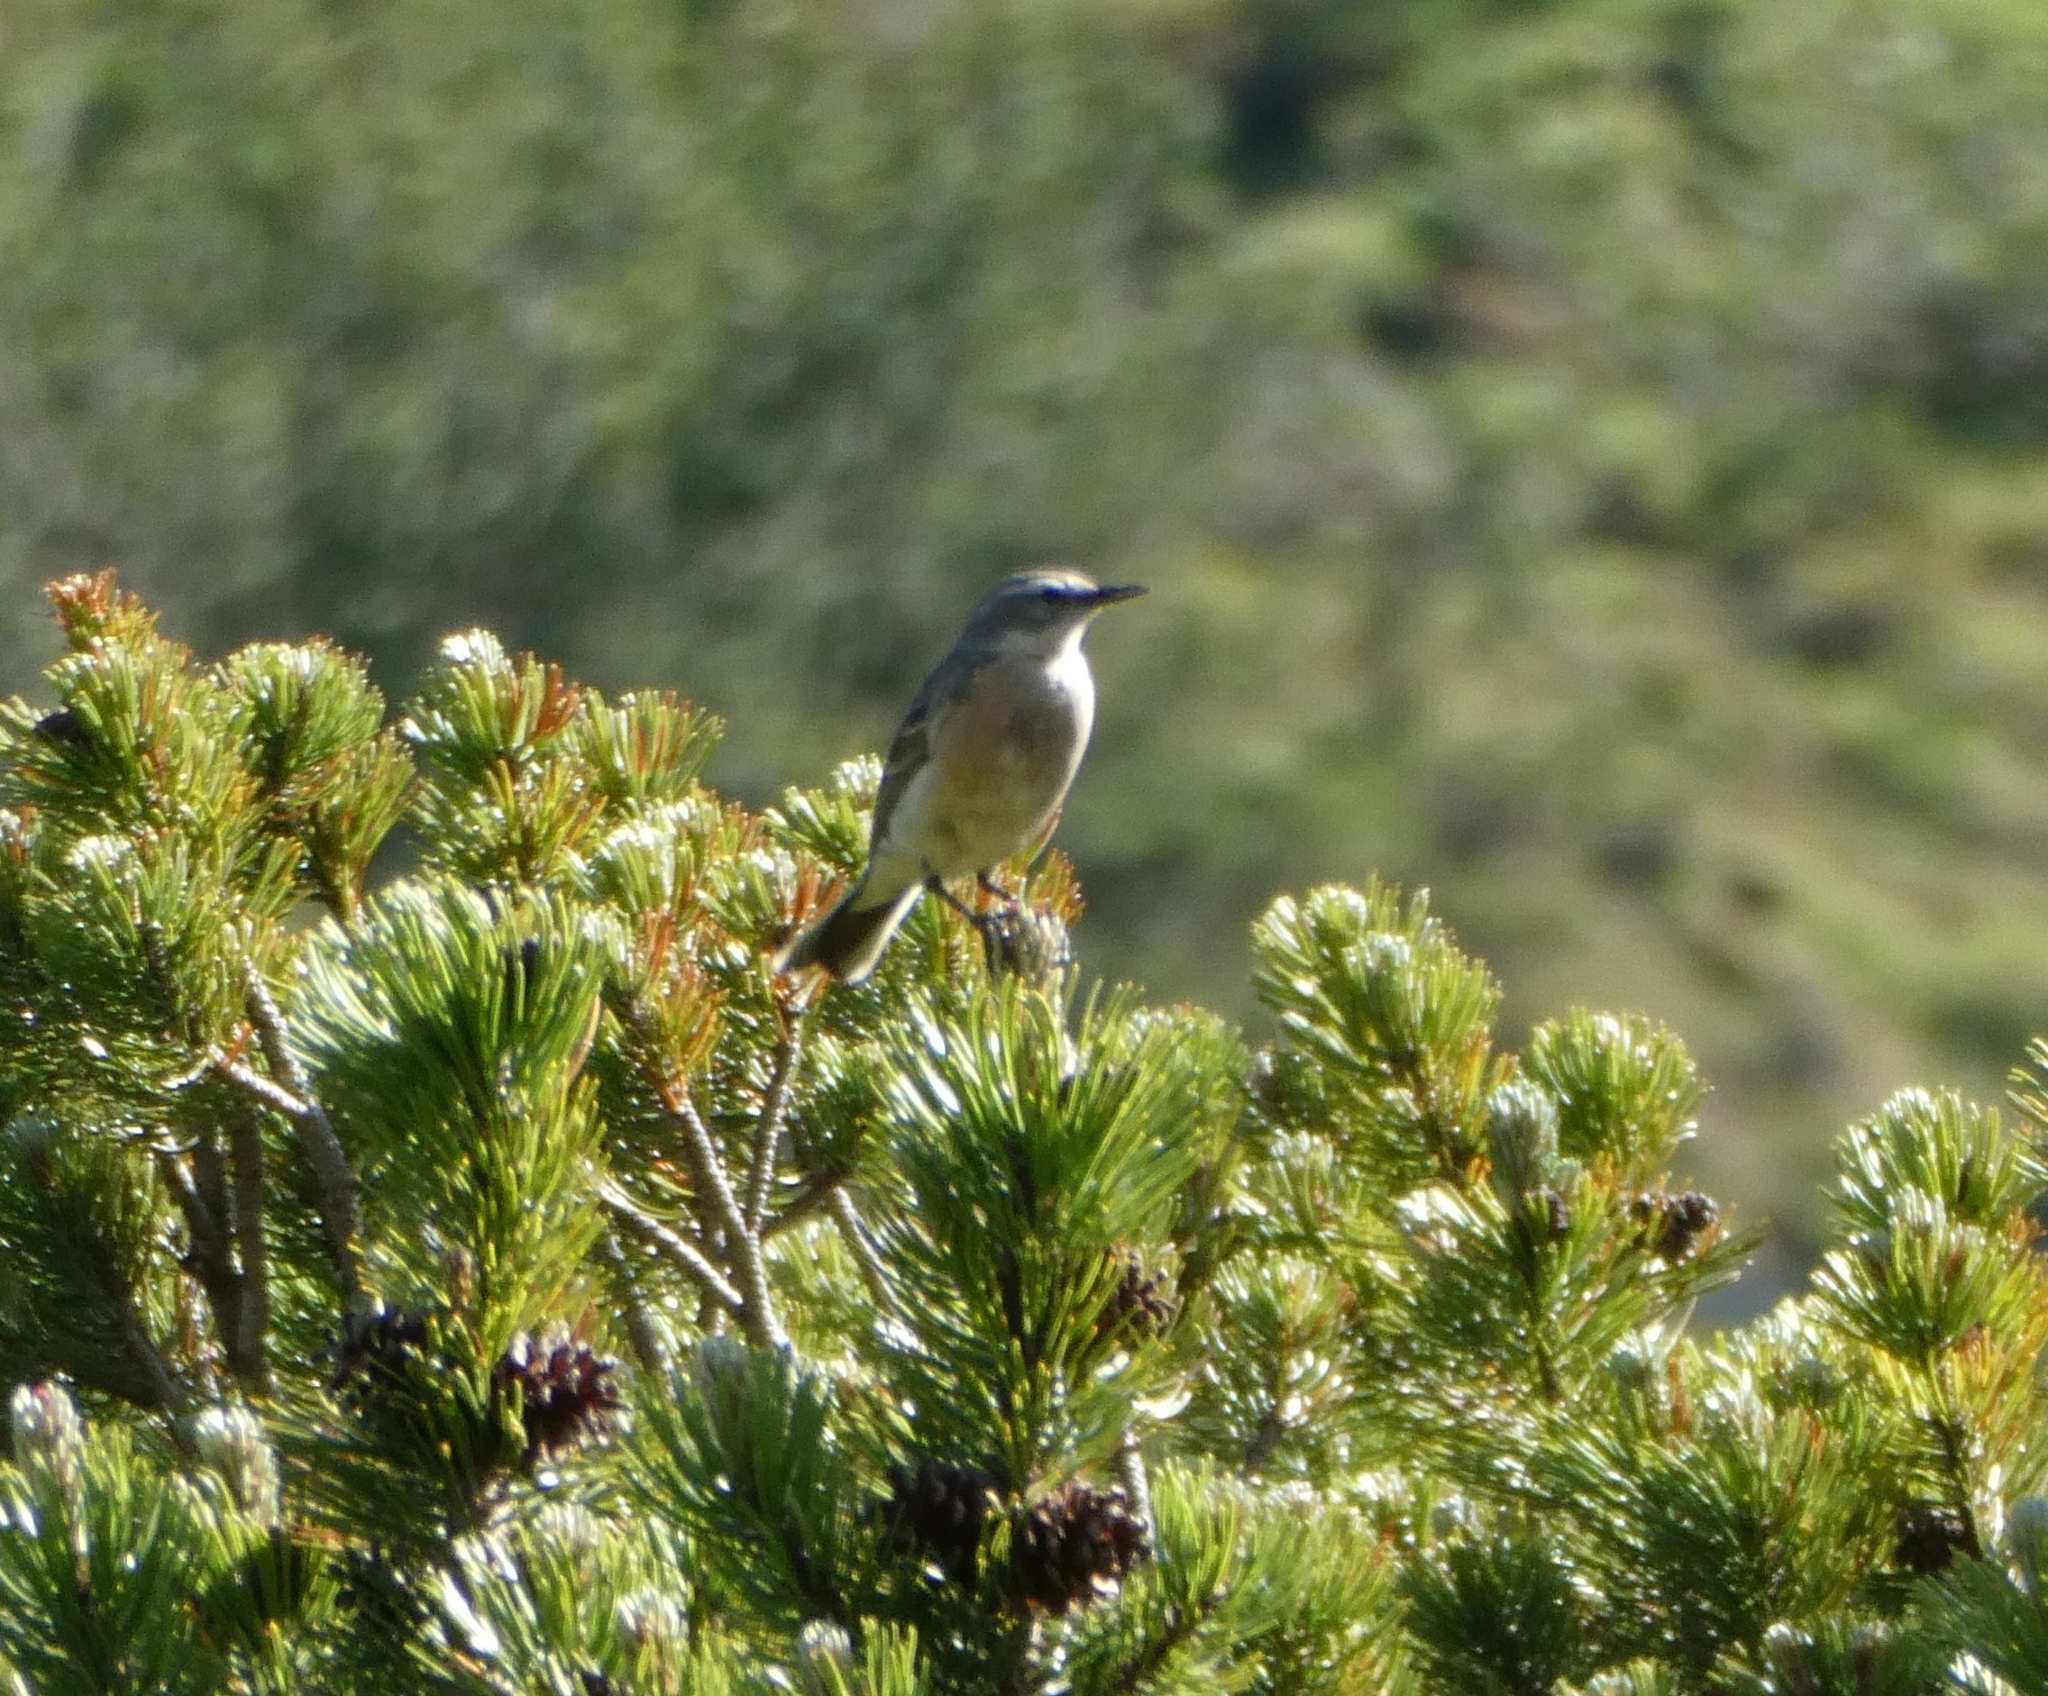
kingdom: Animalia
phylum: Chordata
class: Aves
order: Passeriformes
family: Motacillidae
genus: Anthus
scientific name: Anthus spinoletta
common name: Water pipit
